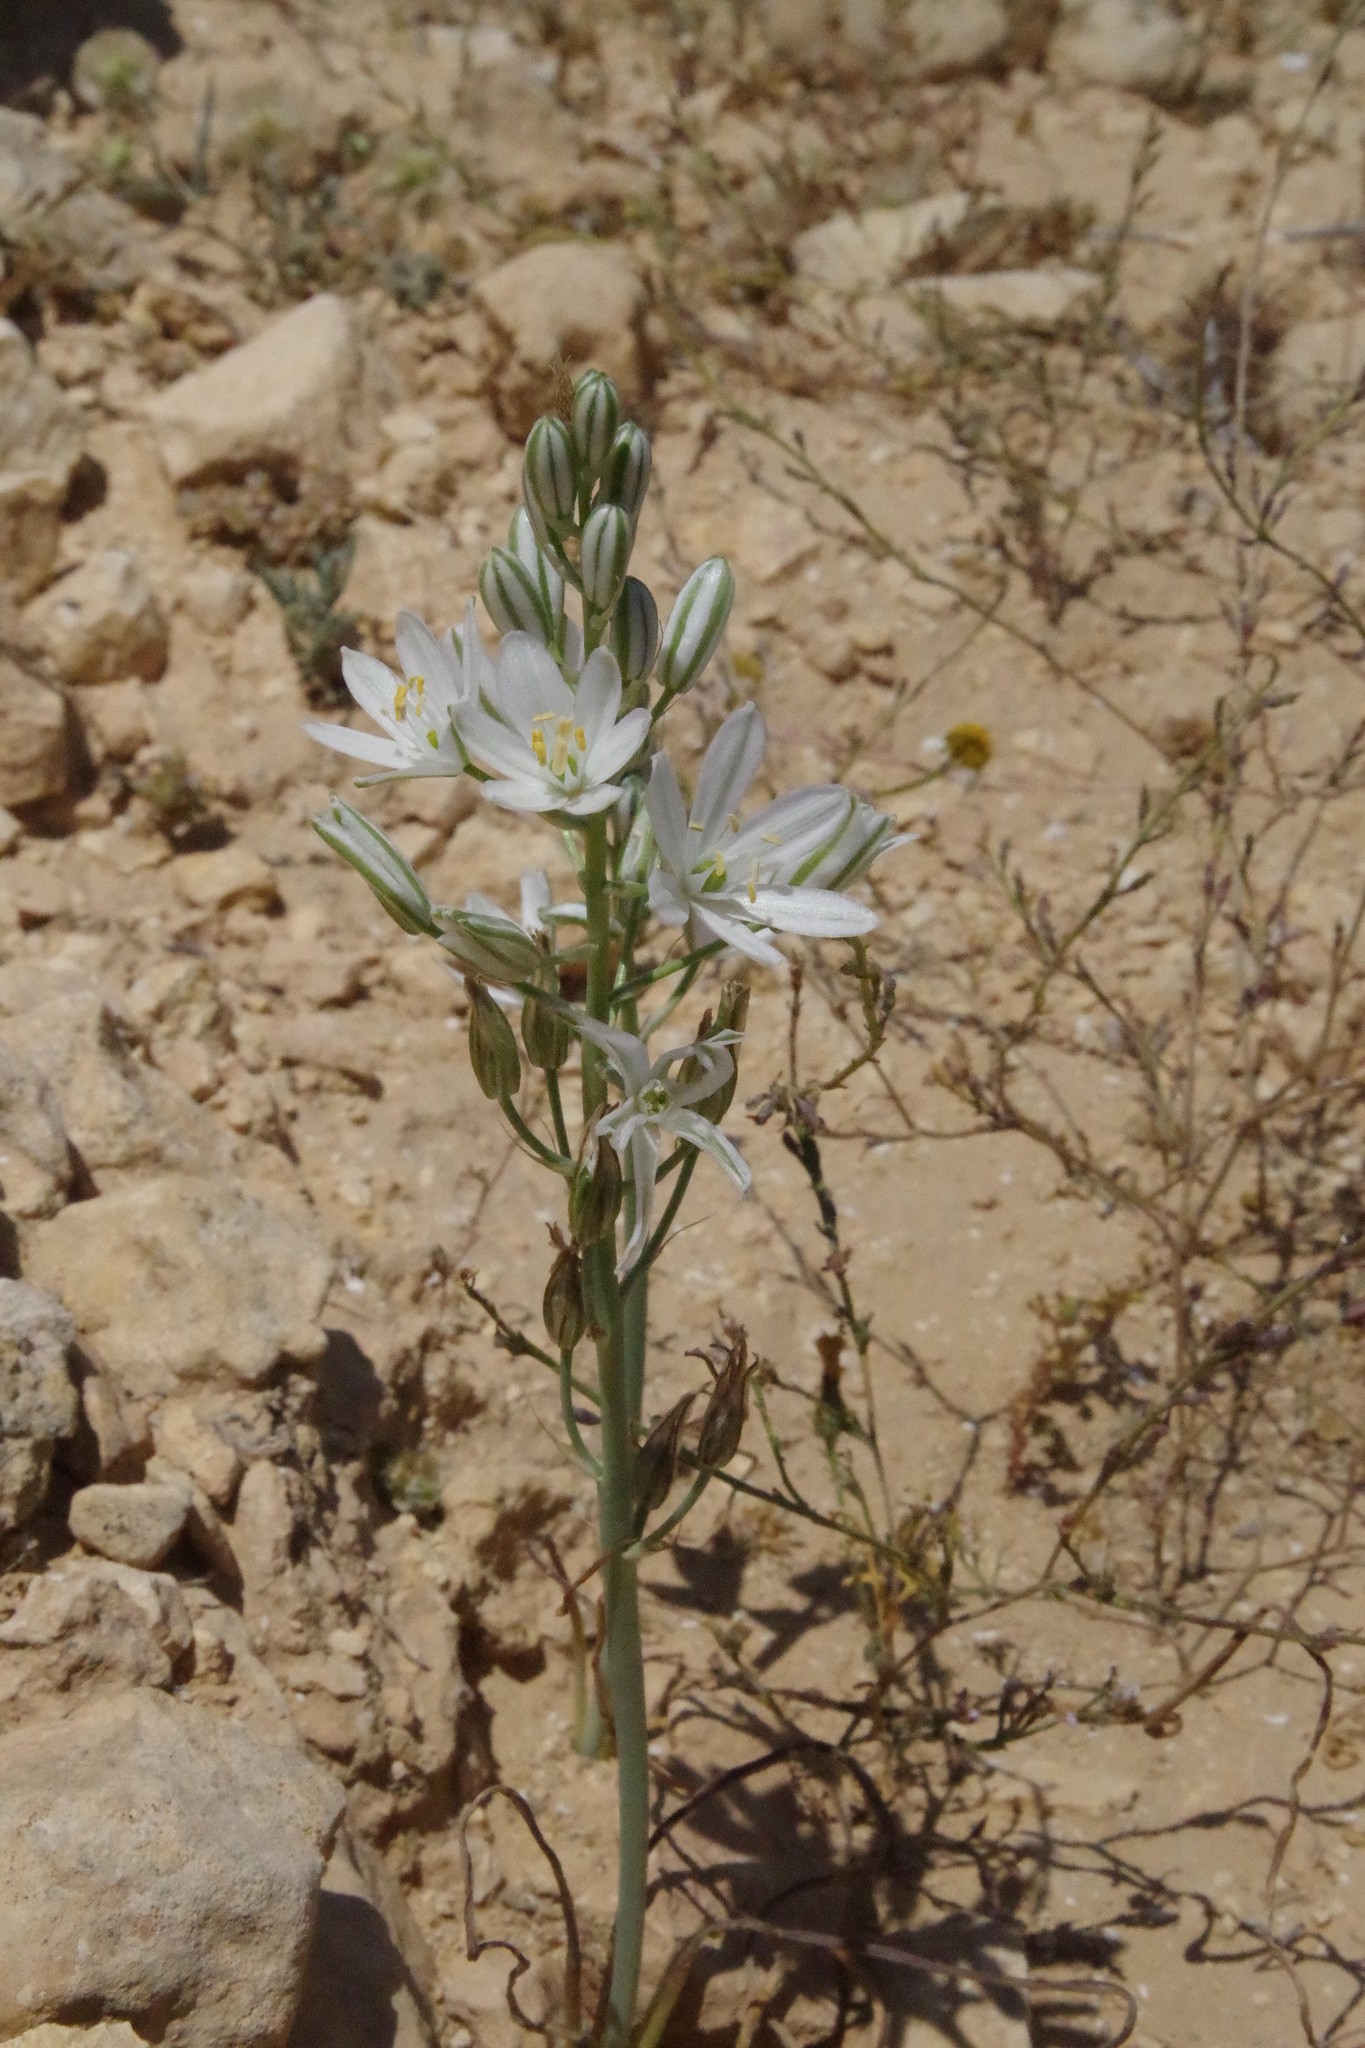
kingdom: Plantae
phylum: Tracheophyta
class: Liliopsida
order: Asparagales
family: Asparagaceae
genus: Ornithogalum
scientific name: Ornithogalum narbonense
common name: Bath-asparagus
